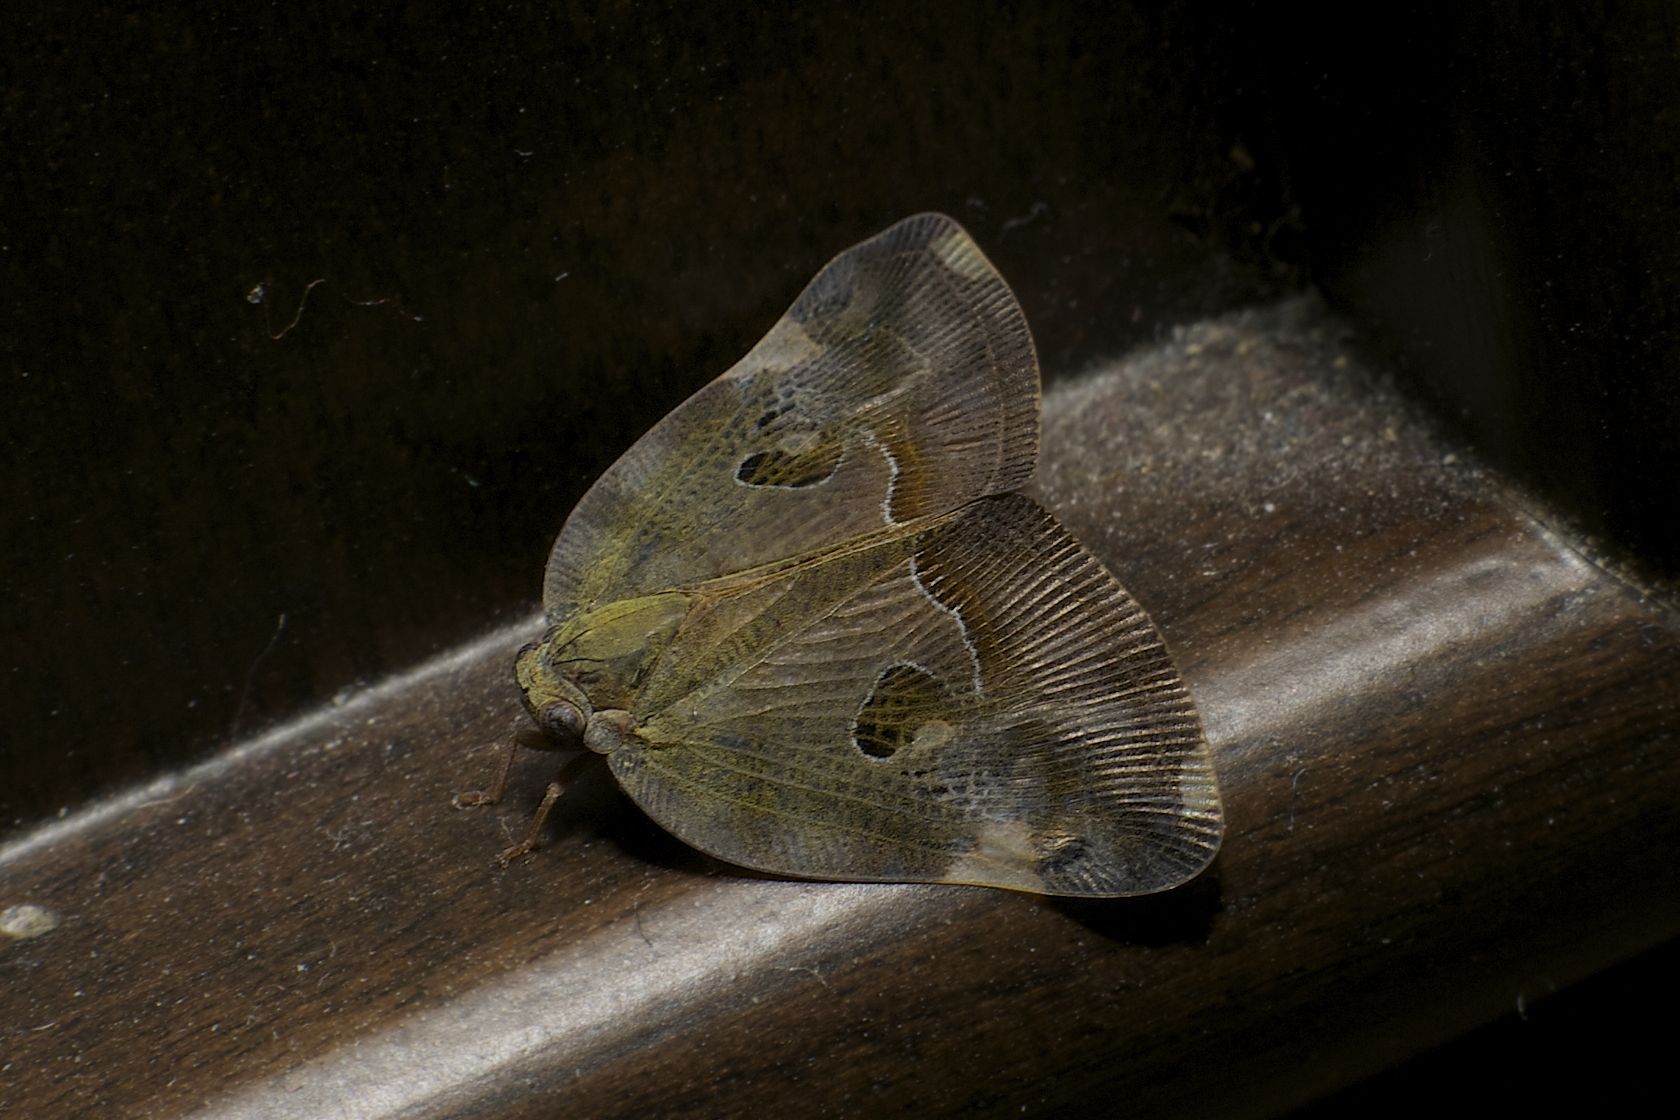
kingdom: Animalia
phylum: Arthropoda
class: Insecta
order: Hemiptera
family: Ricaniidae
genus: Ricania
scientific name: Ricania guttata
